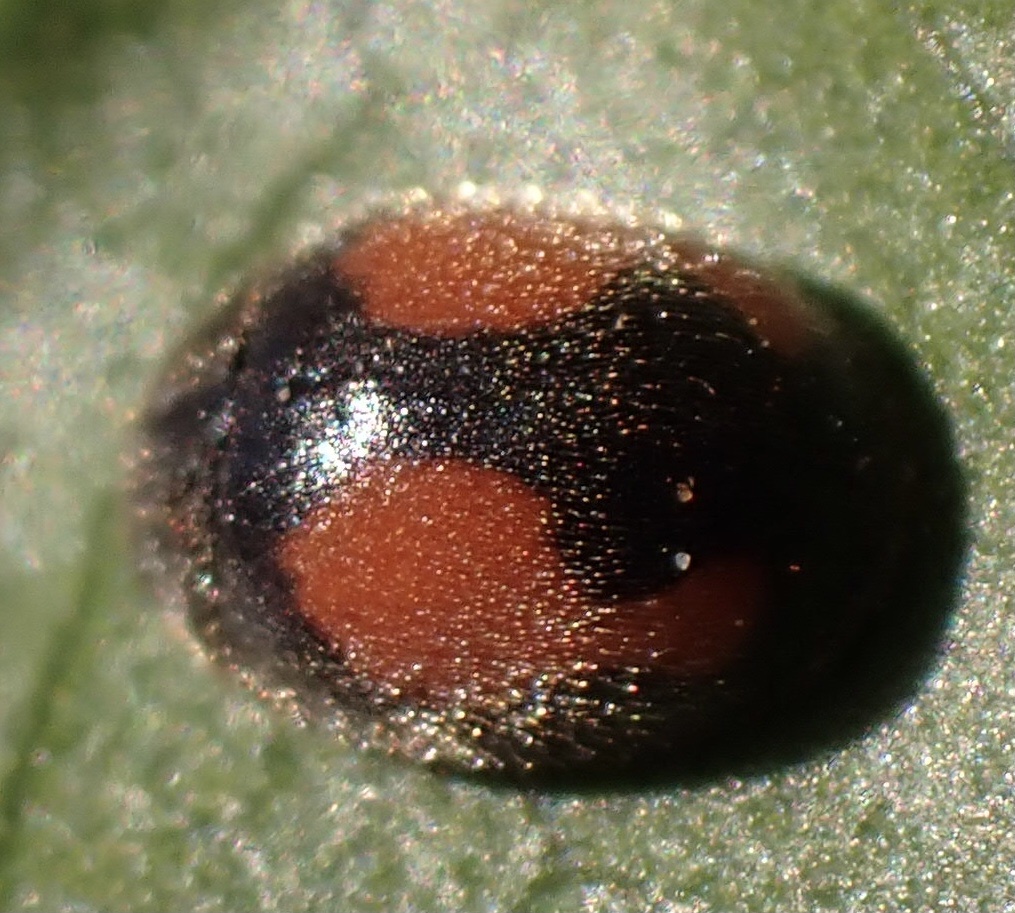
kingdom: Animalia
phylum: Arthropoda
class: Insecta
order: Coleoptera
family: Coccinellidae
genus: Platynaspis
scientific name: Platynaspis luteorubra
